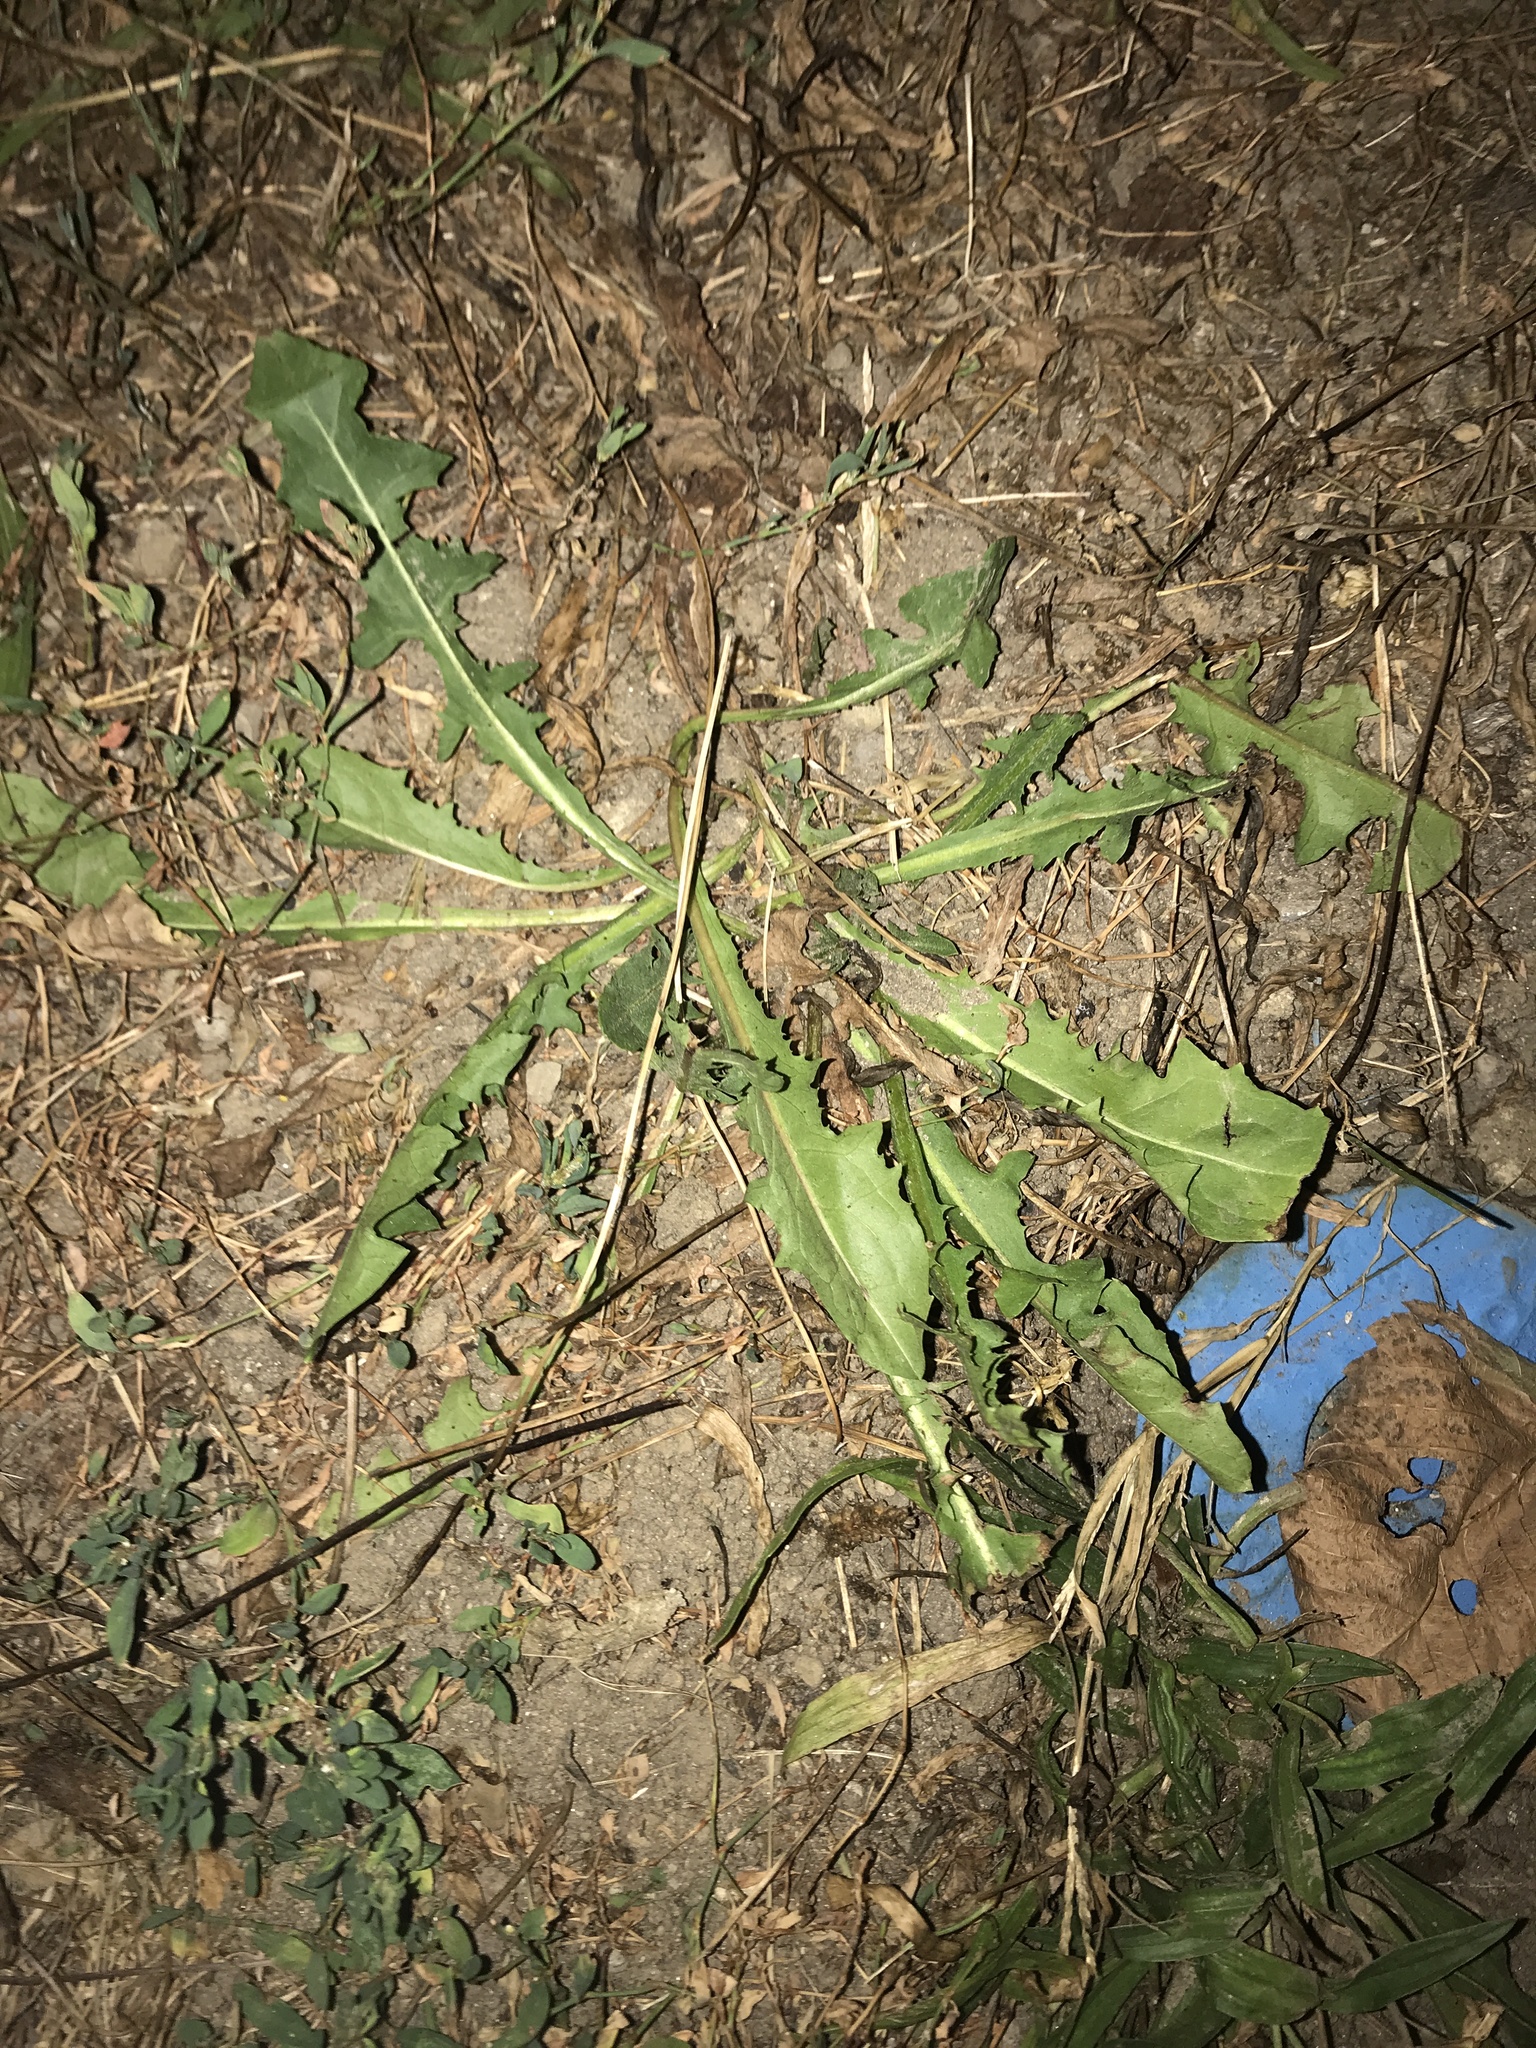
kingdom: Plantae
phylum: Tracheophyta
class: Magnoliopsida
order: Asterales
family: Asteraceae
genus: Taraxacum
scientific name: Taraxacum officinale
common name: Common dandelion
